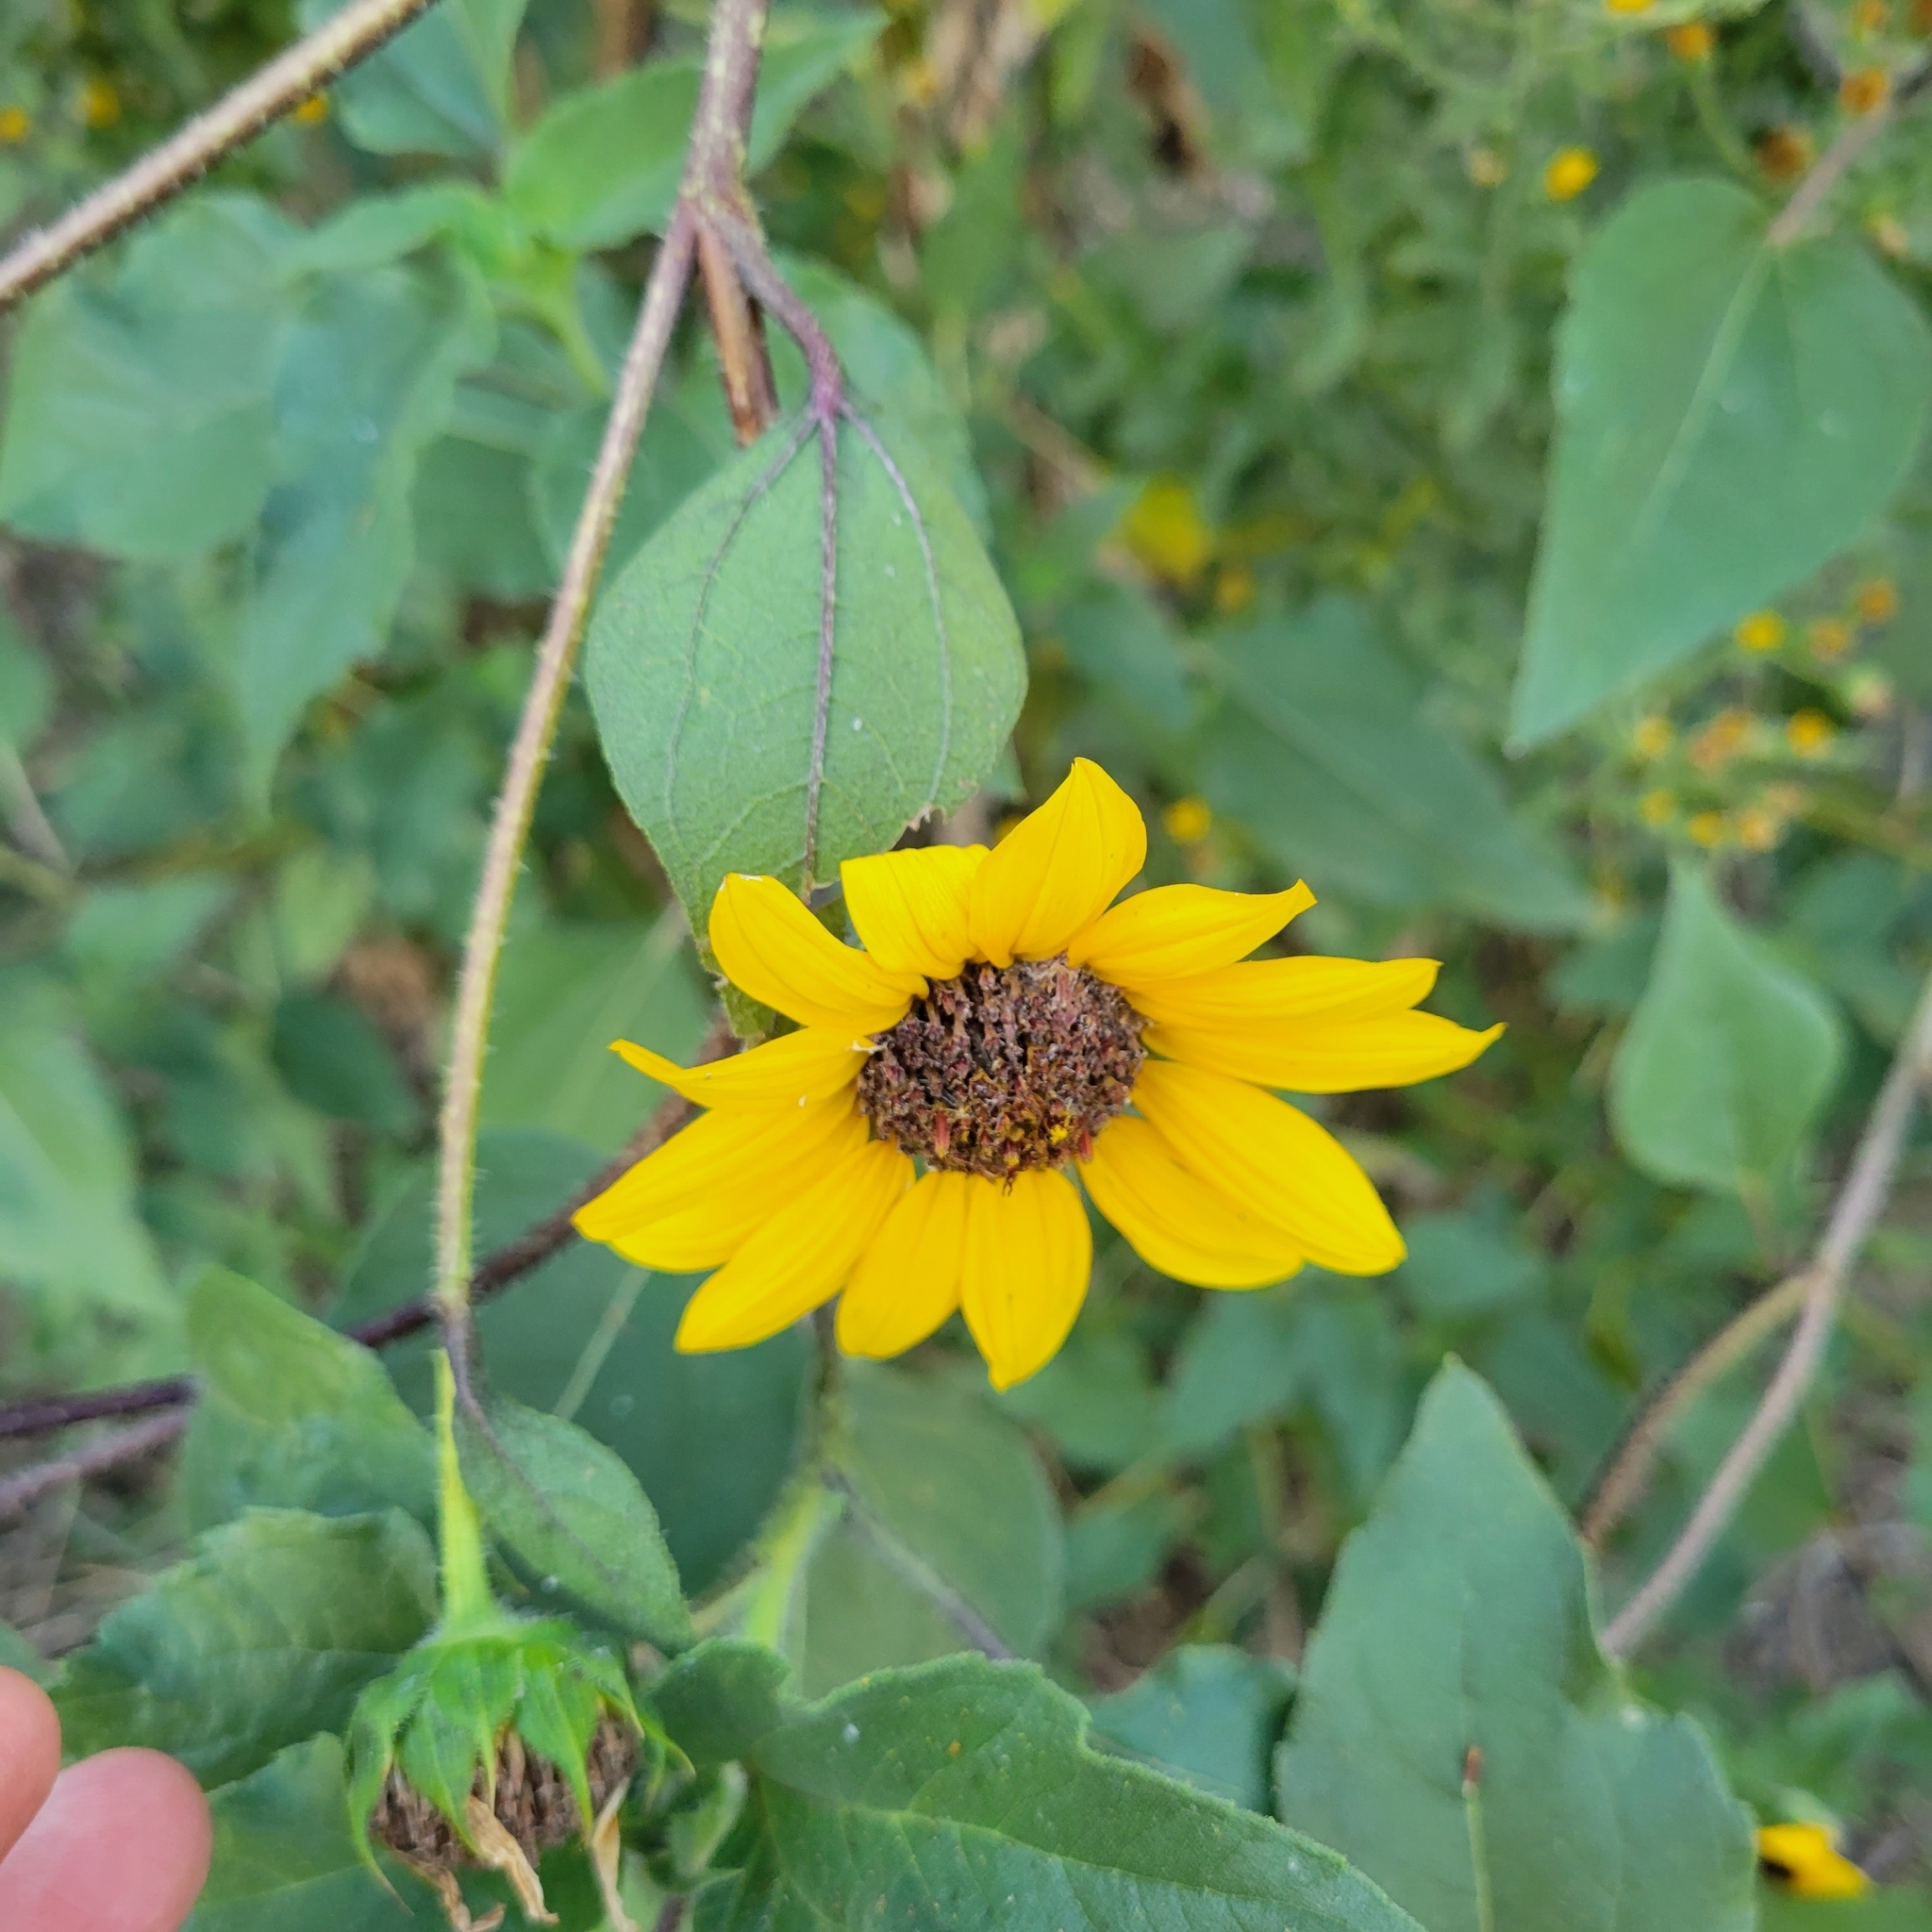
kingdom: Plantae
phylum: Tracheophyta
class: Magnoliopsida
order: Asterales
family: Asteraceae
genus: Helianthus
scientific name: Helianthus annuus
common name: Sunflower
